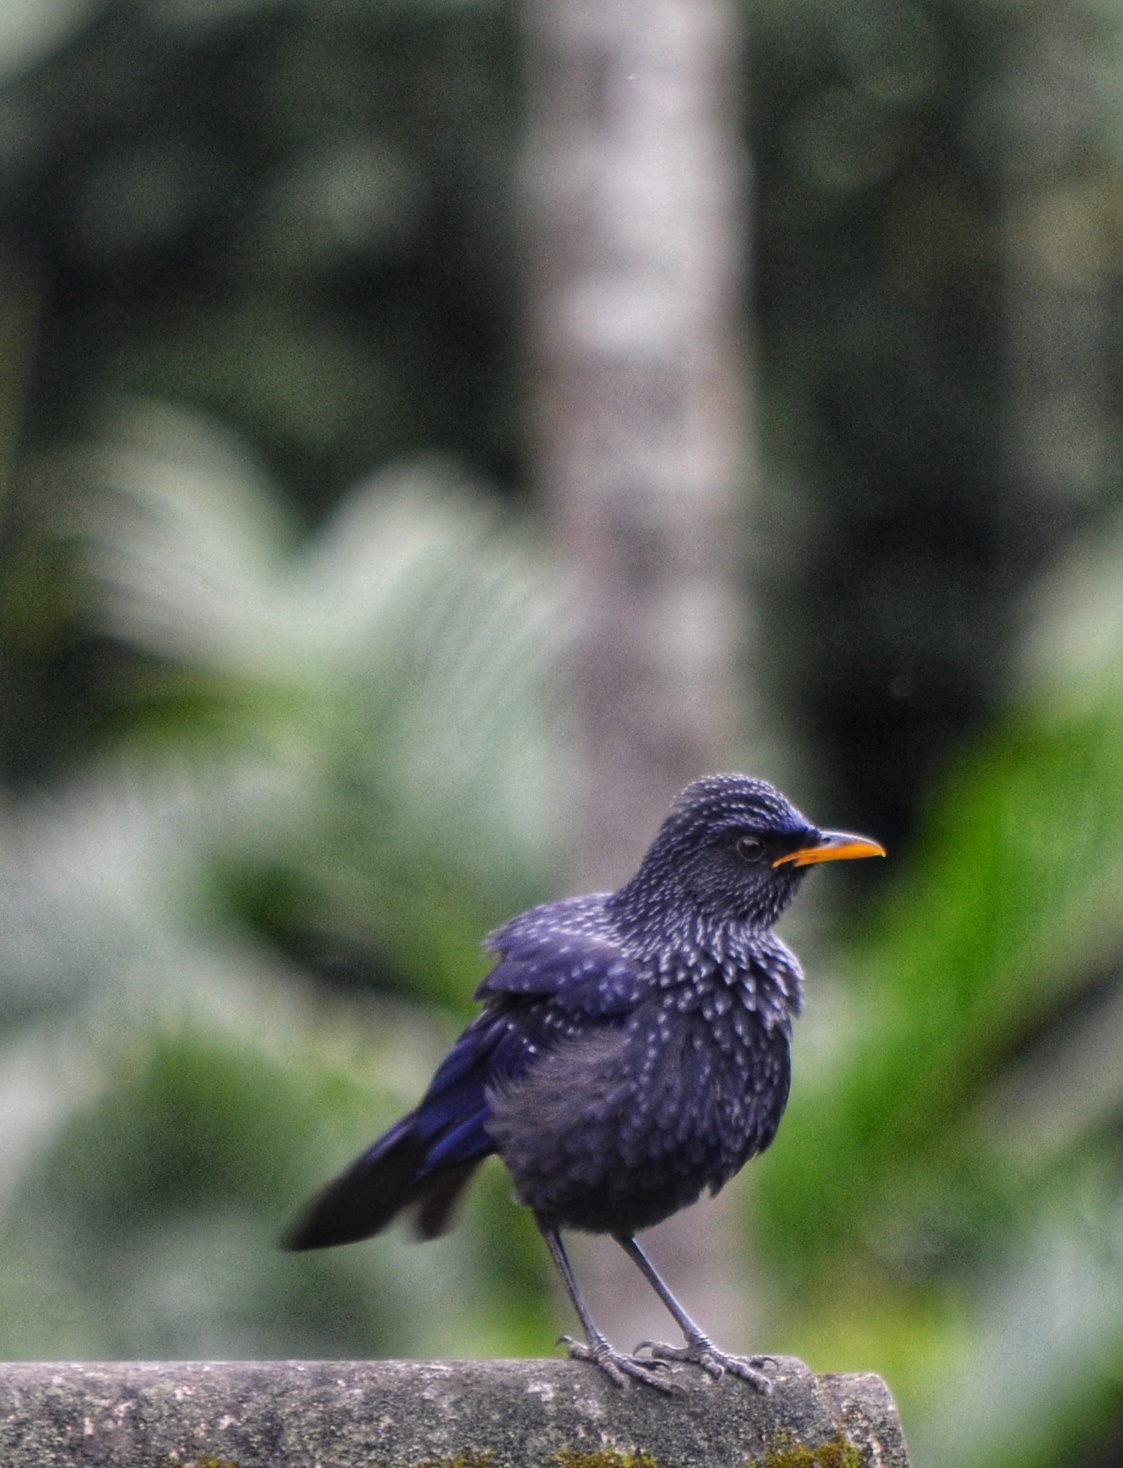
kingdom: Animalia
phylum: Chordata
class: Aves
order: Passeriformes
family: Muscicapidae
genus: Myophonus
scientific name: Myophonus caeruleus
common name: Blue whistling-thrush
